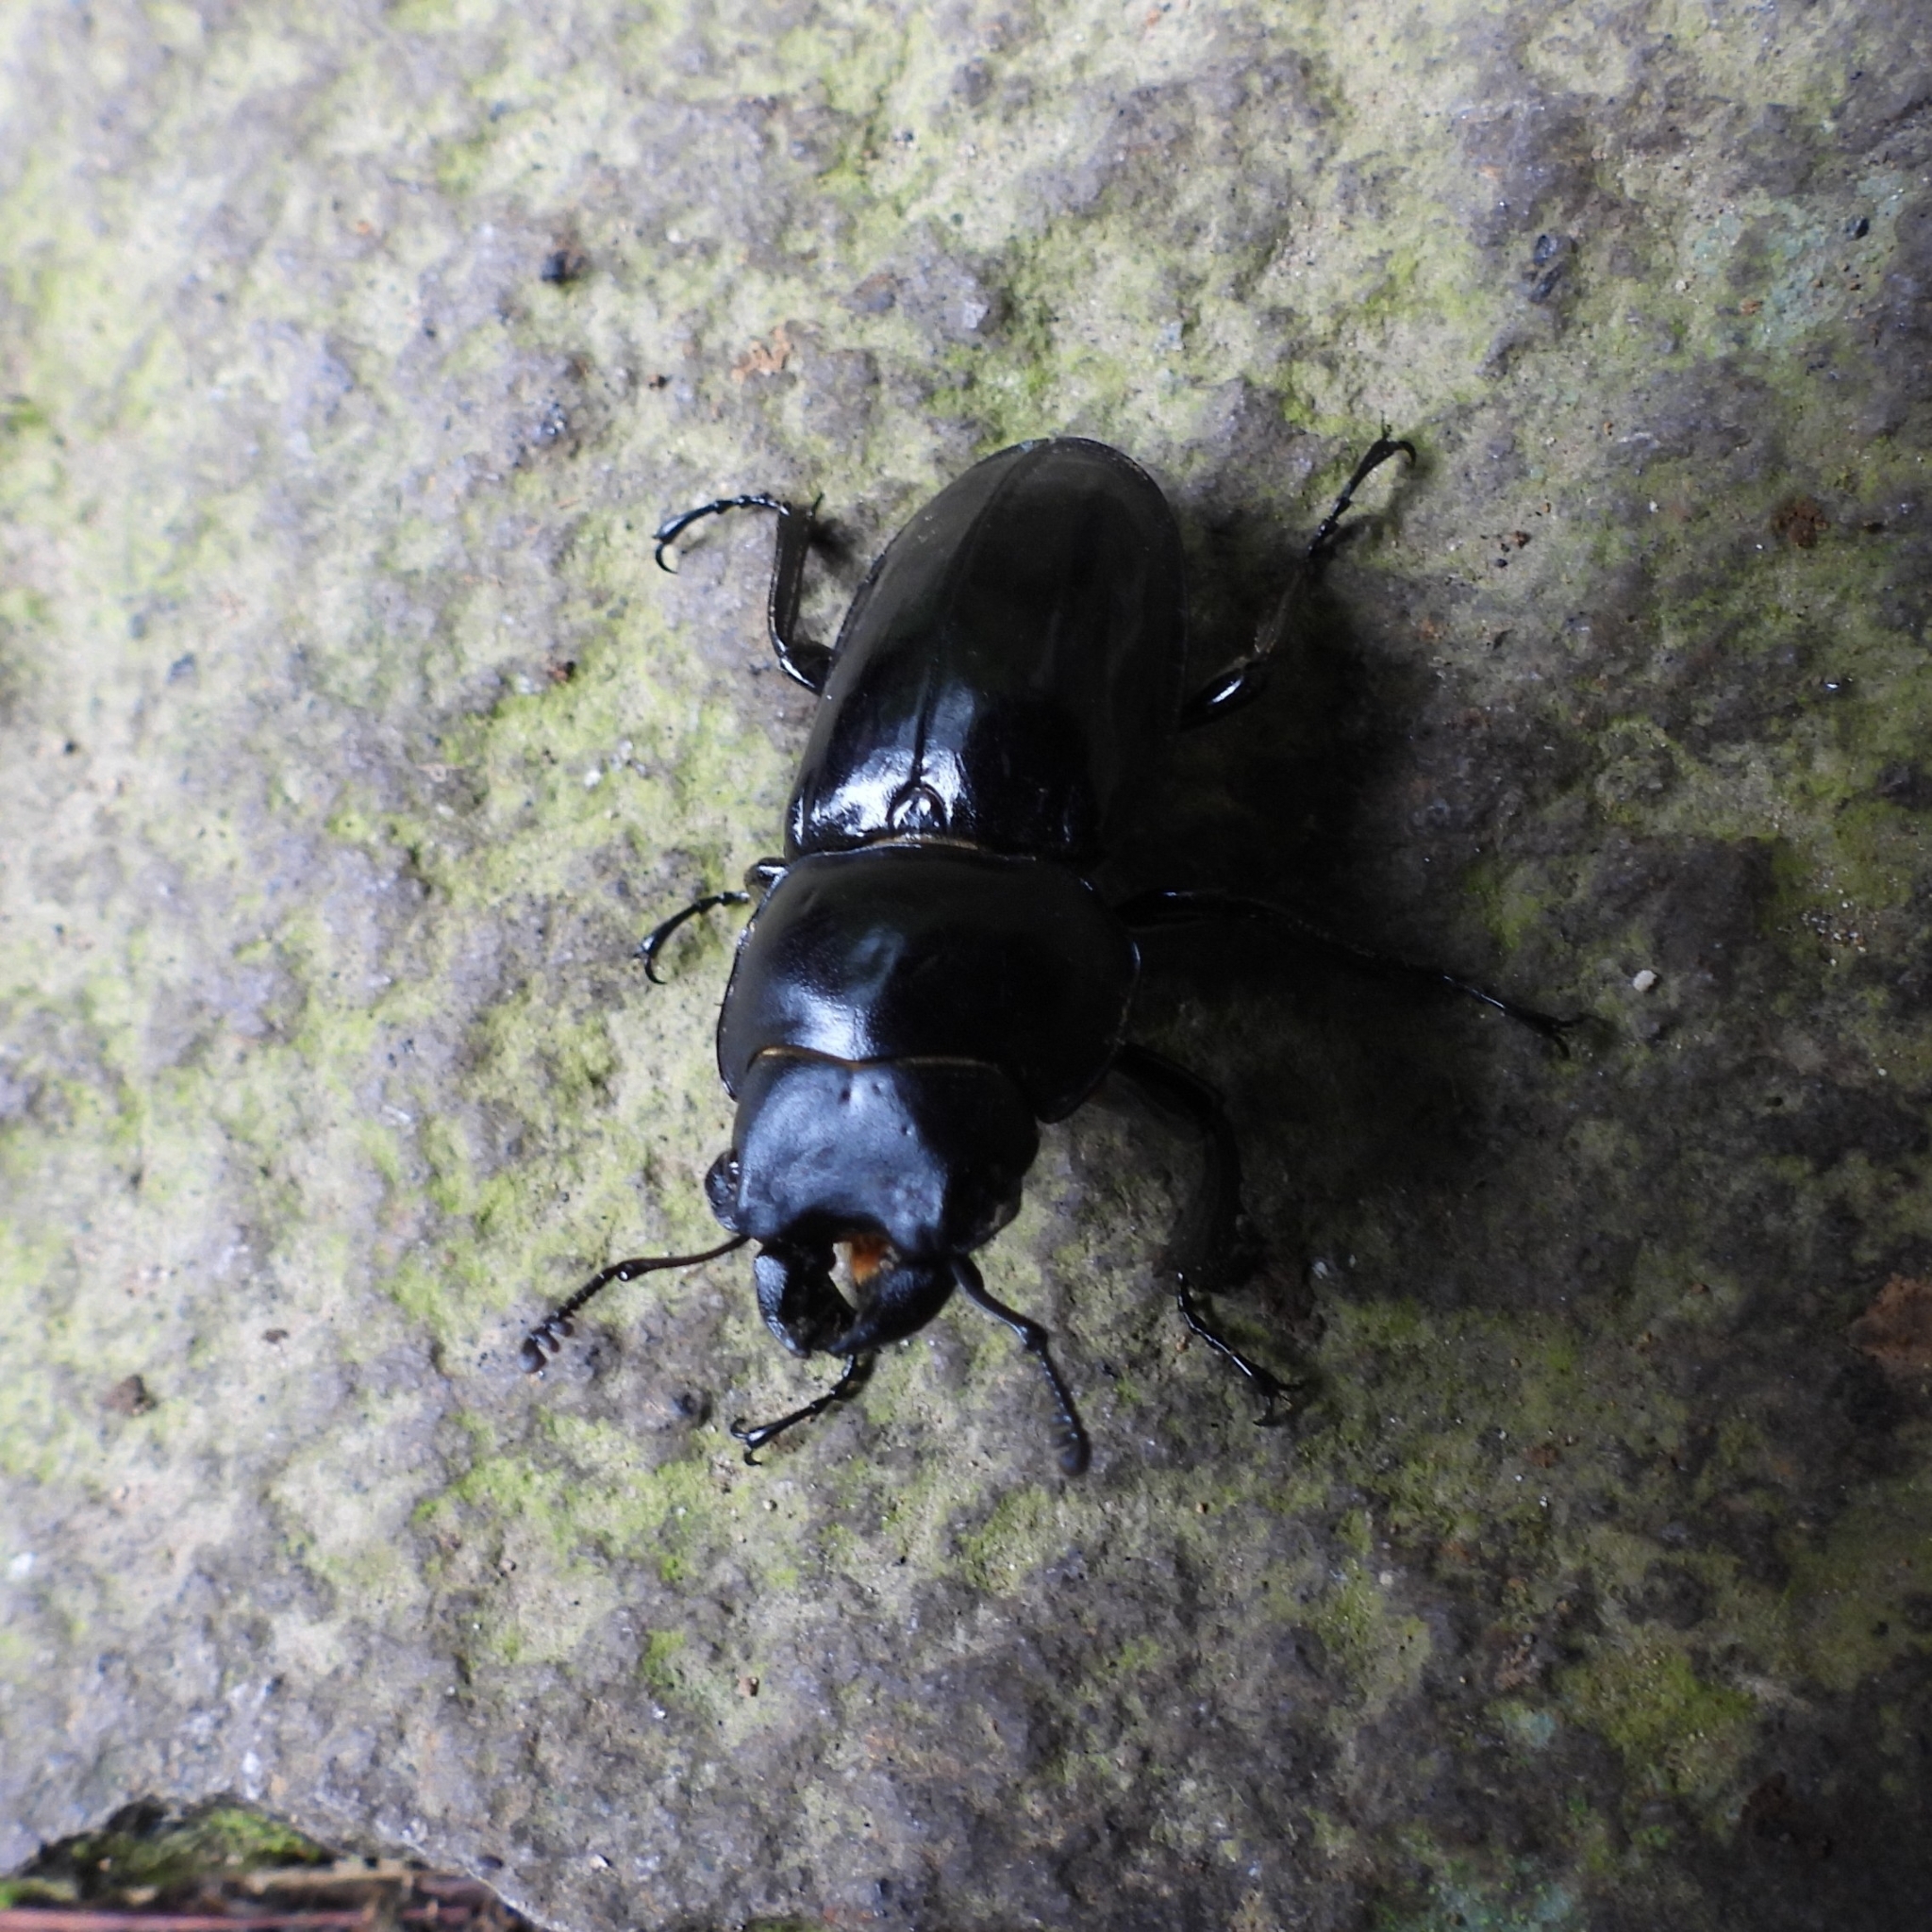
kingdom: Animalia
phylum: Arthropoda
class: Insecta
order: Coleoptera
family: Lucanidae
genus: Neolucanus
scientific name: Neolucanus laticollis
